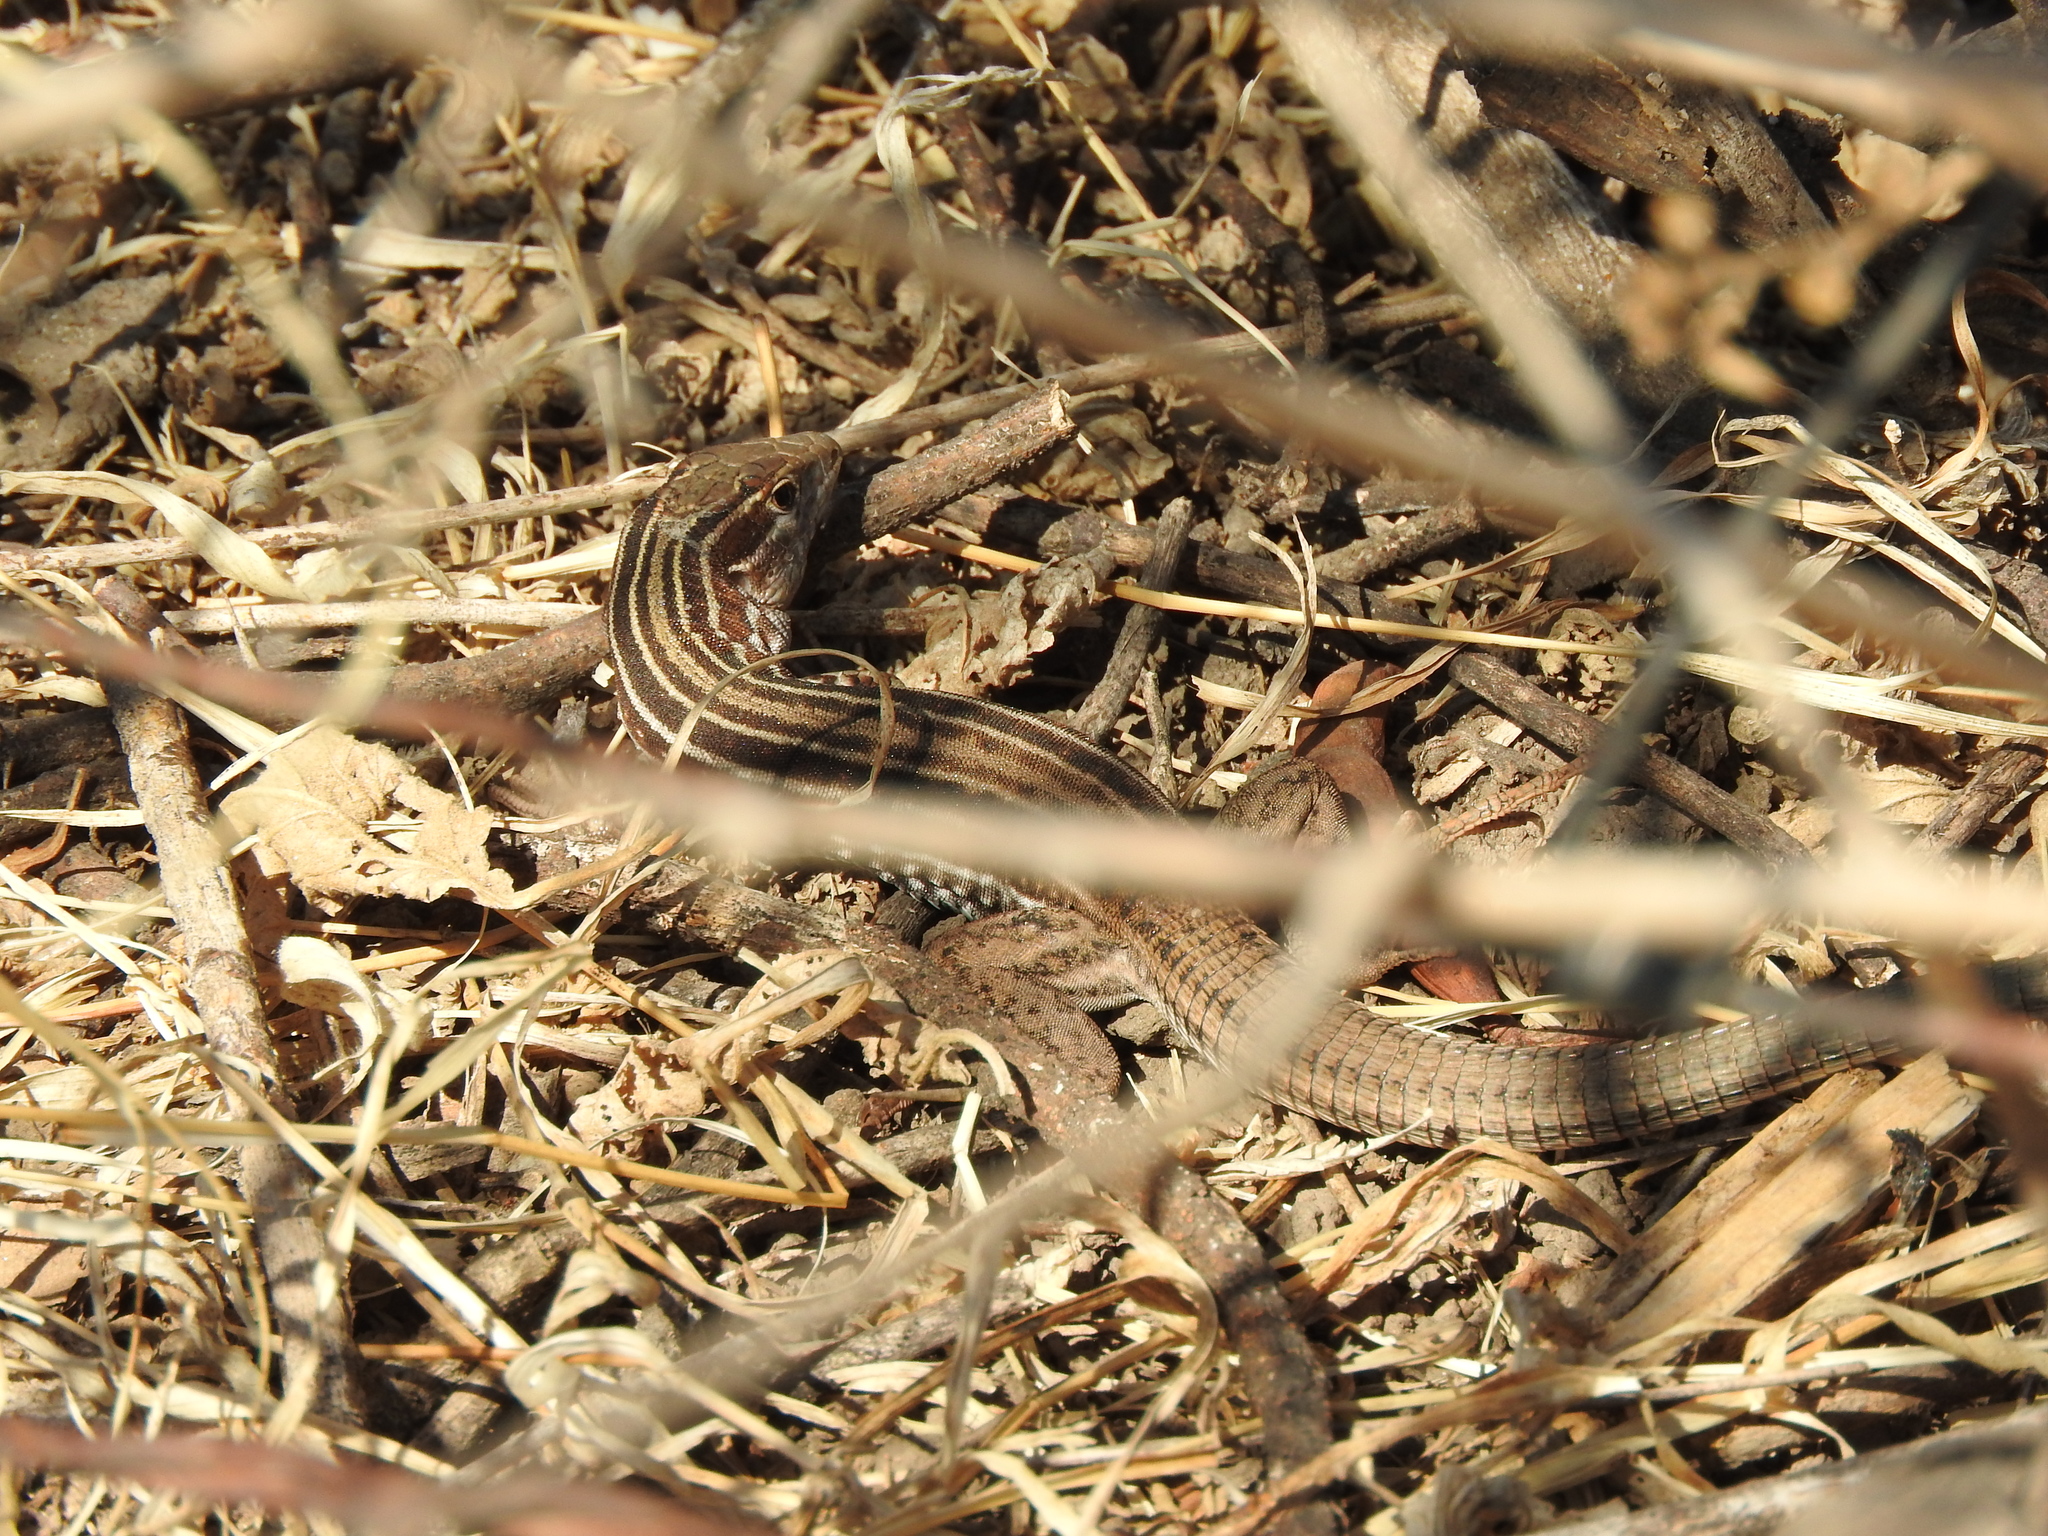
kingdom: Animalia
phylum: Chordata
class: Squamata
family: Teiidae
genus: Aspidoscelis
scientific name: Aspidoscelis gularis
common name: Eastern spotted whiptail
